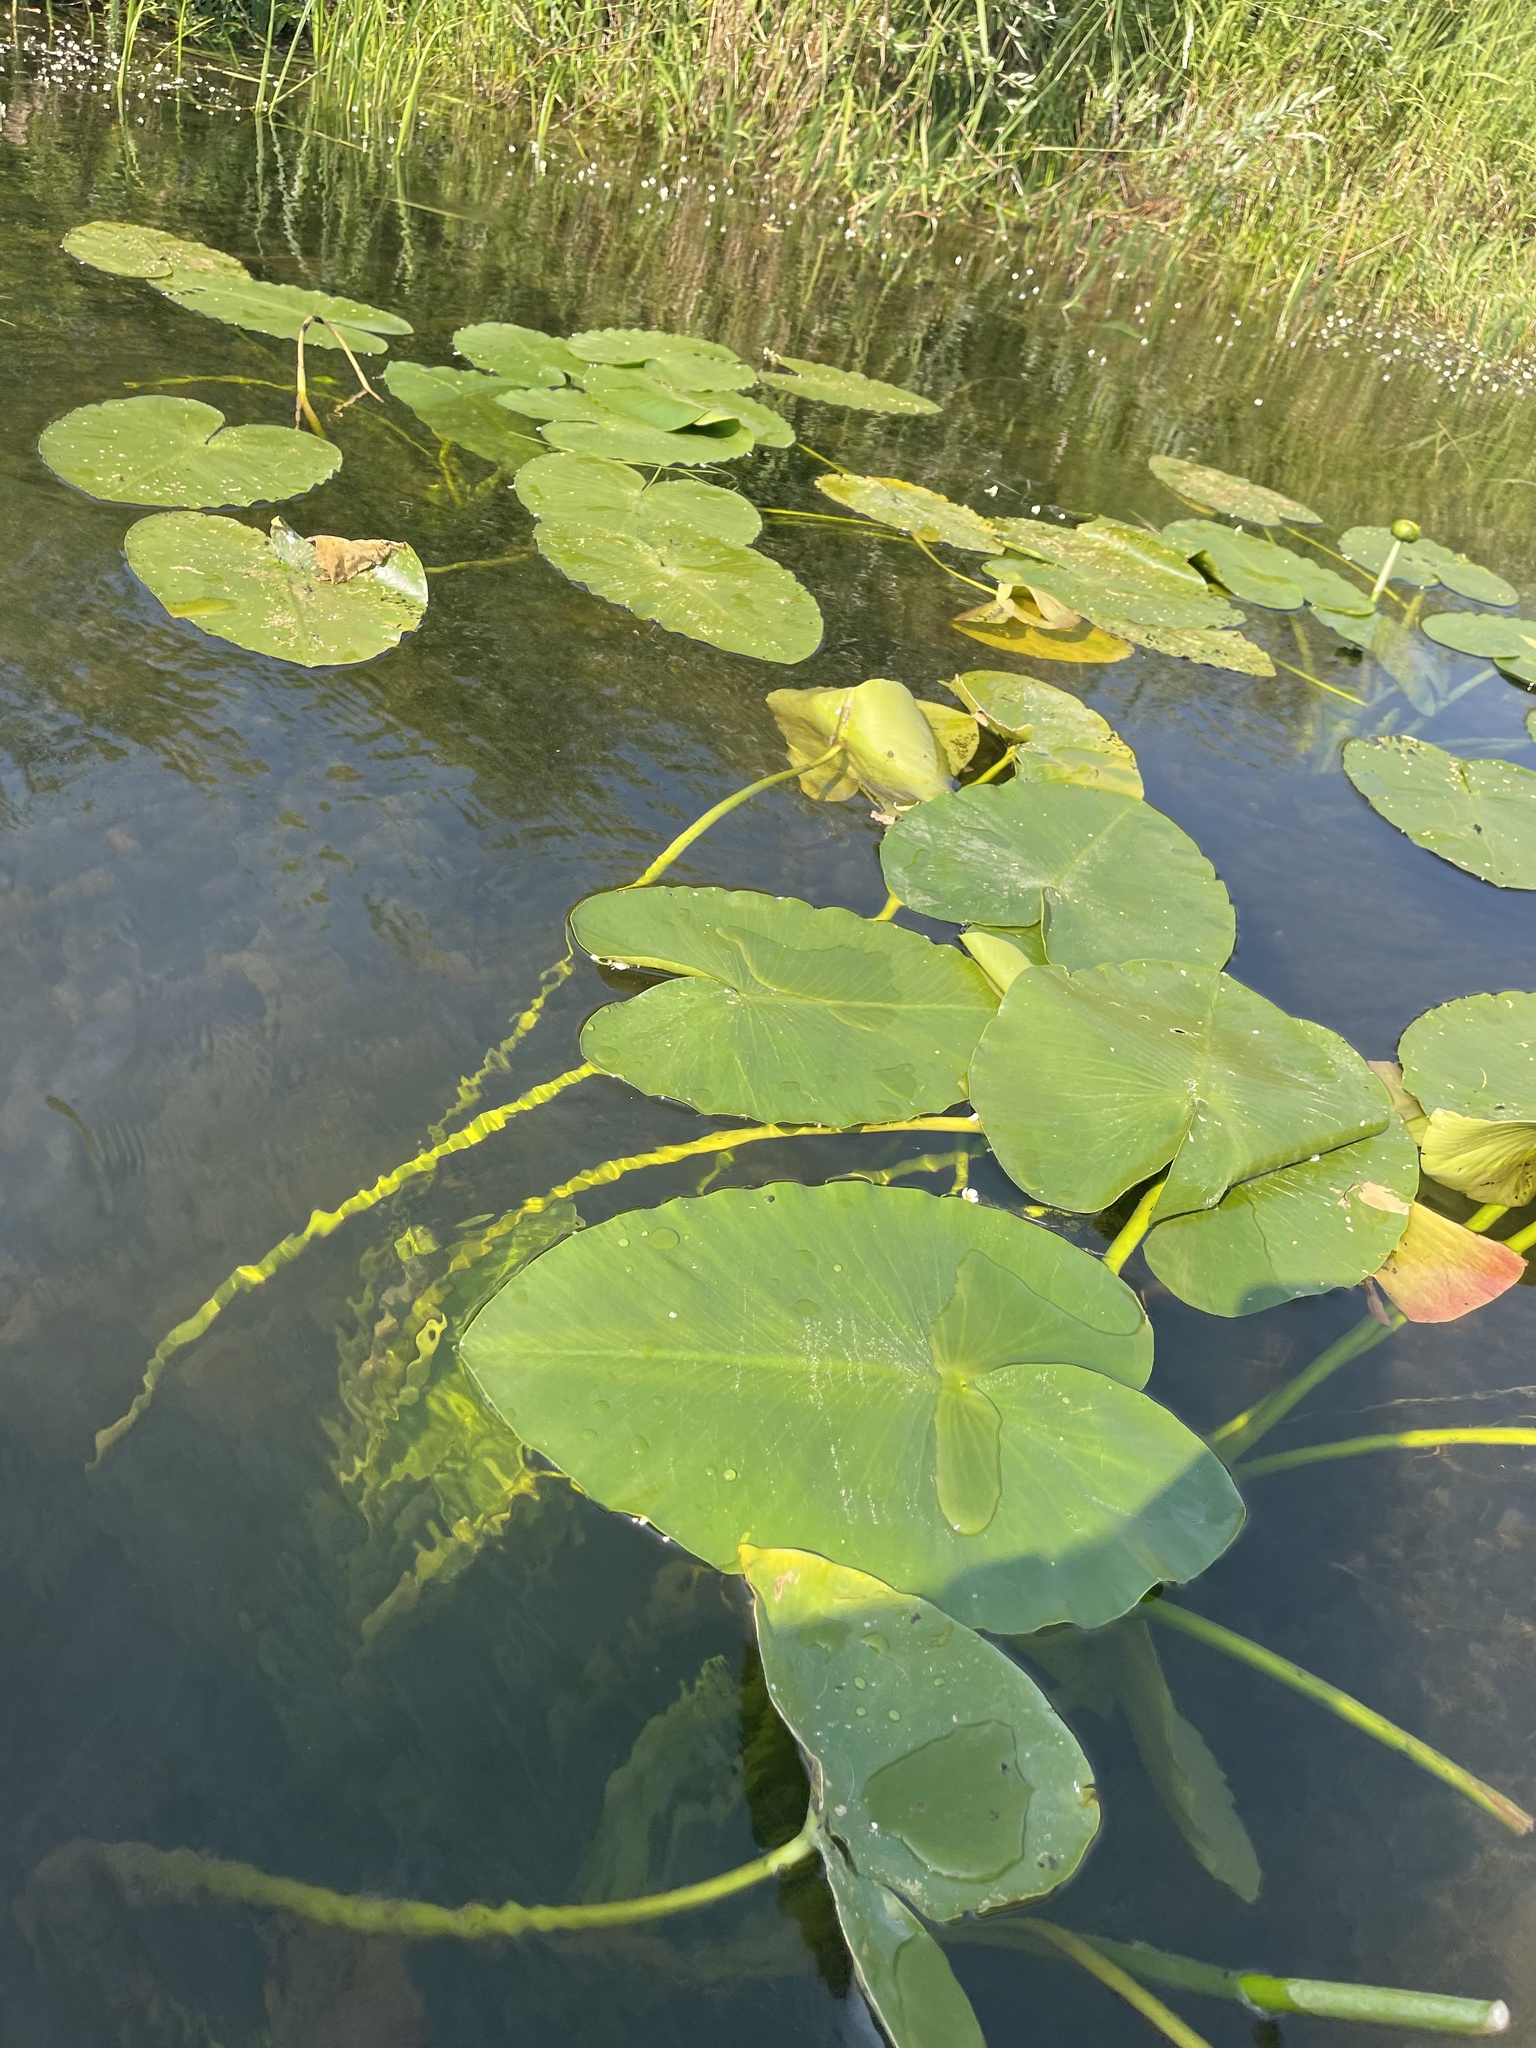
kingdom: Plantae
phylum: Tracheophyta
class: Magnoliopsida
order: Nymphaeales
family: Nymphaeaceae
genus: Nuphar
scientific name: Nuphar polysepala
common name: Rocky mountain cow-lily
